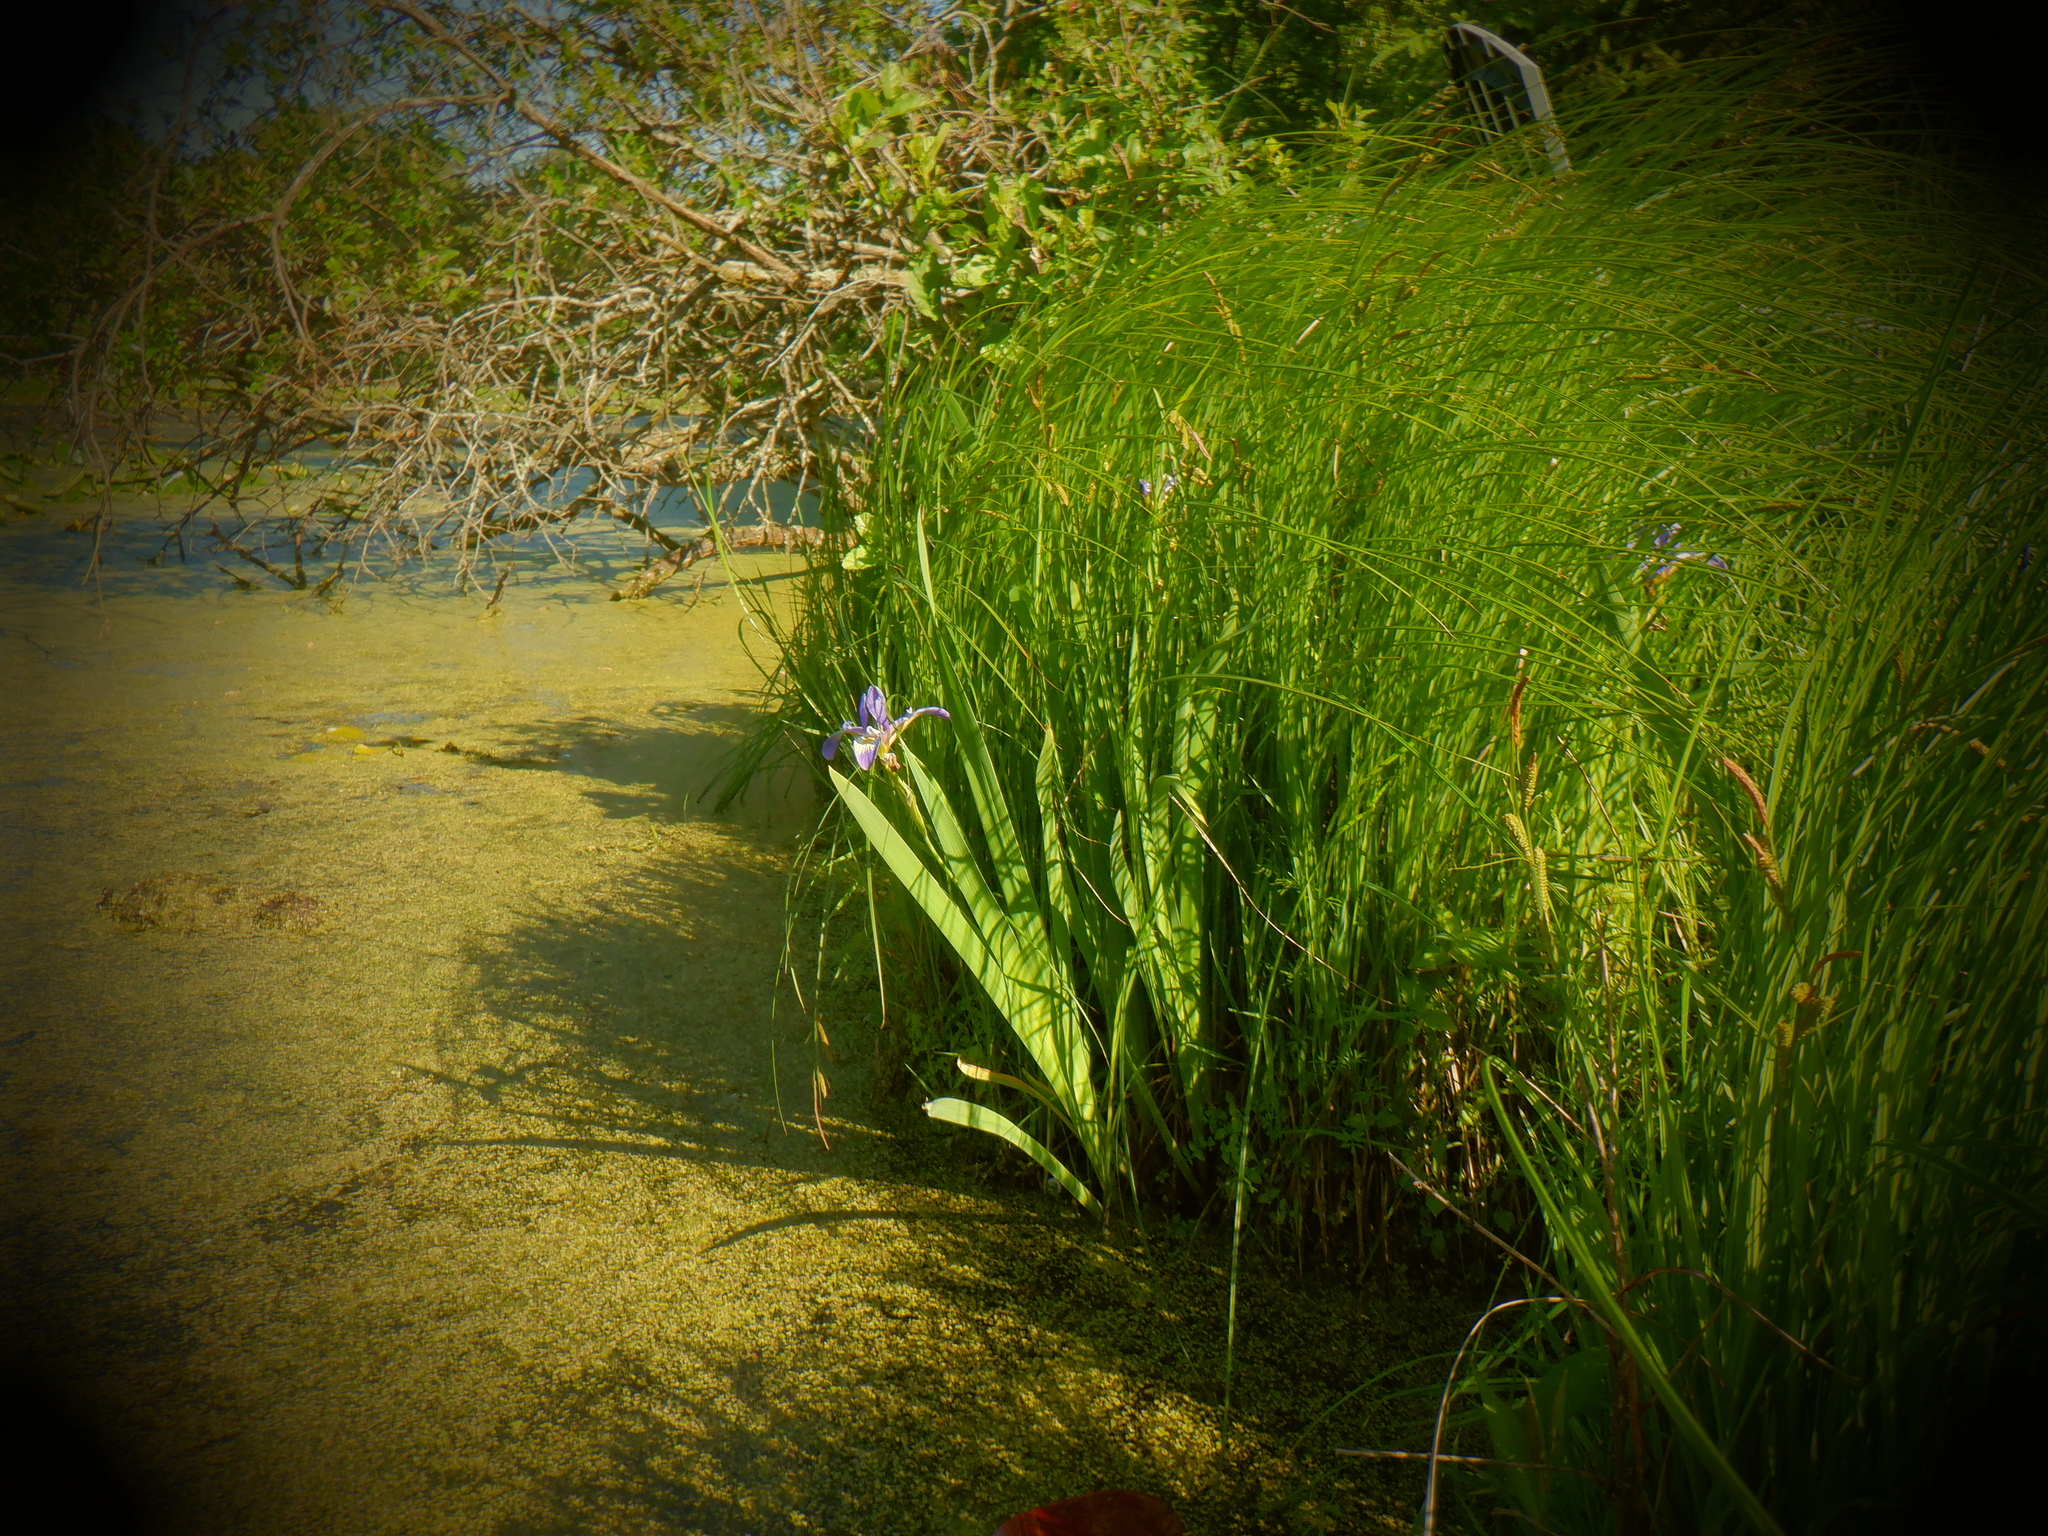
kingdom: Plantae
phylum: Tracheophyta
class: Liliopsida
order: Asparagales
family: Iridaceae
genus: Iris
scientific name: Iris versicolor
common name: Purple iris
